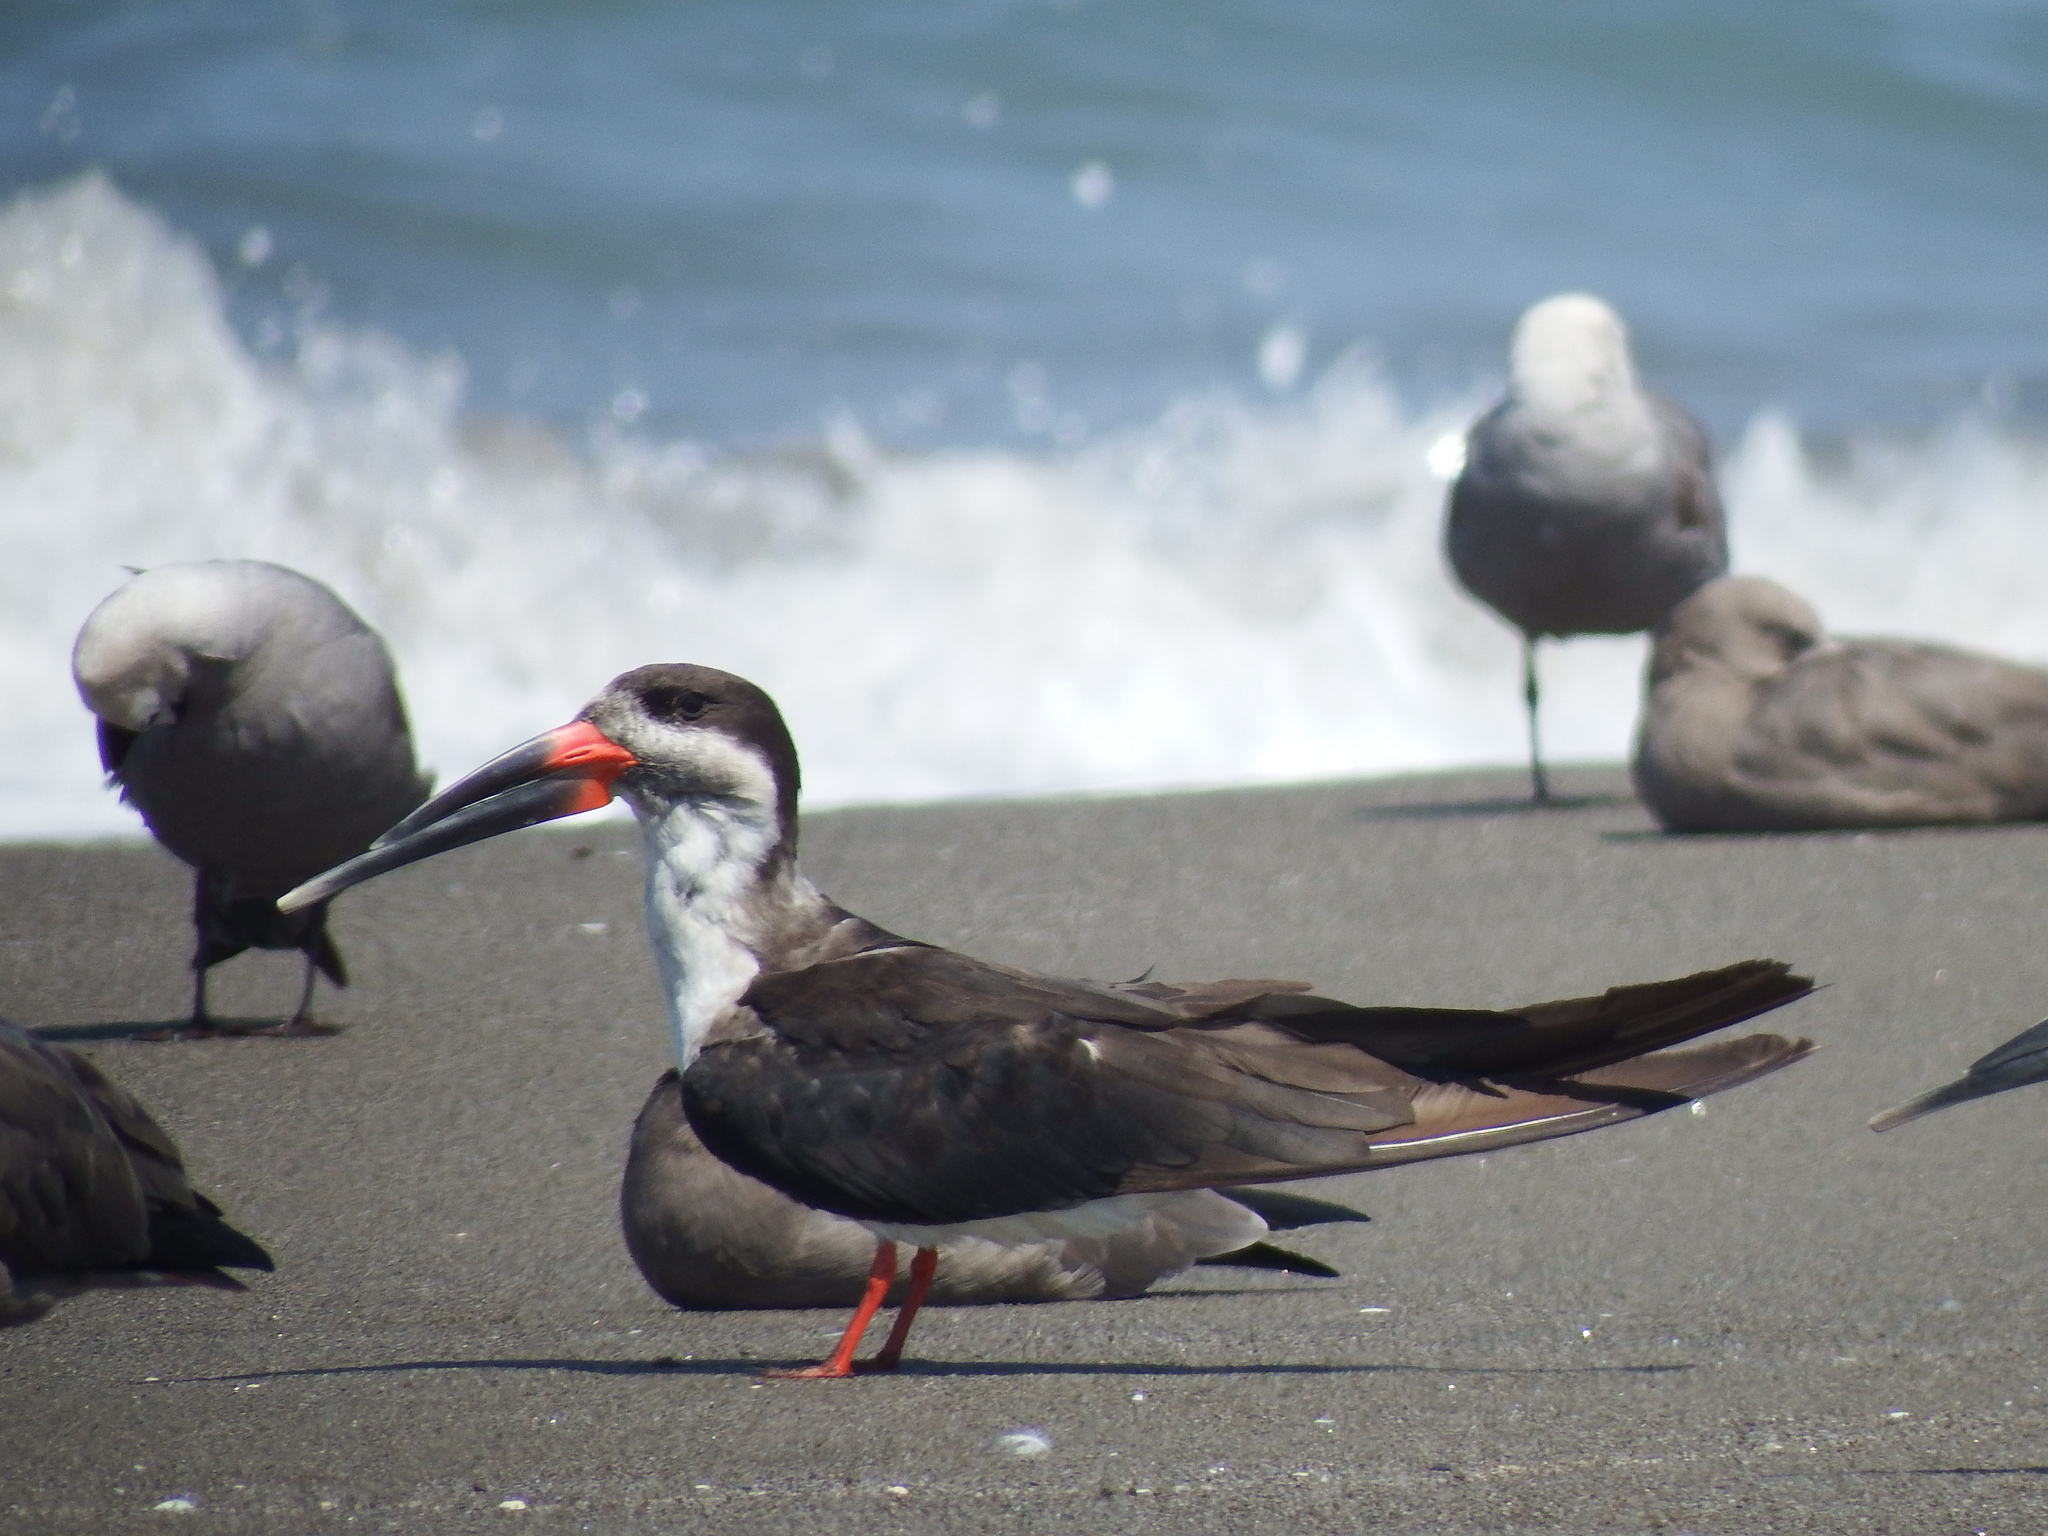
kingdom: Animalia
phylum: Chordata
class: Aves
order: Charadriiformes
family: Laridae
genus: Rynchops
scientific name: Rynchops niger
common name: Black skimmer
